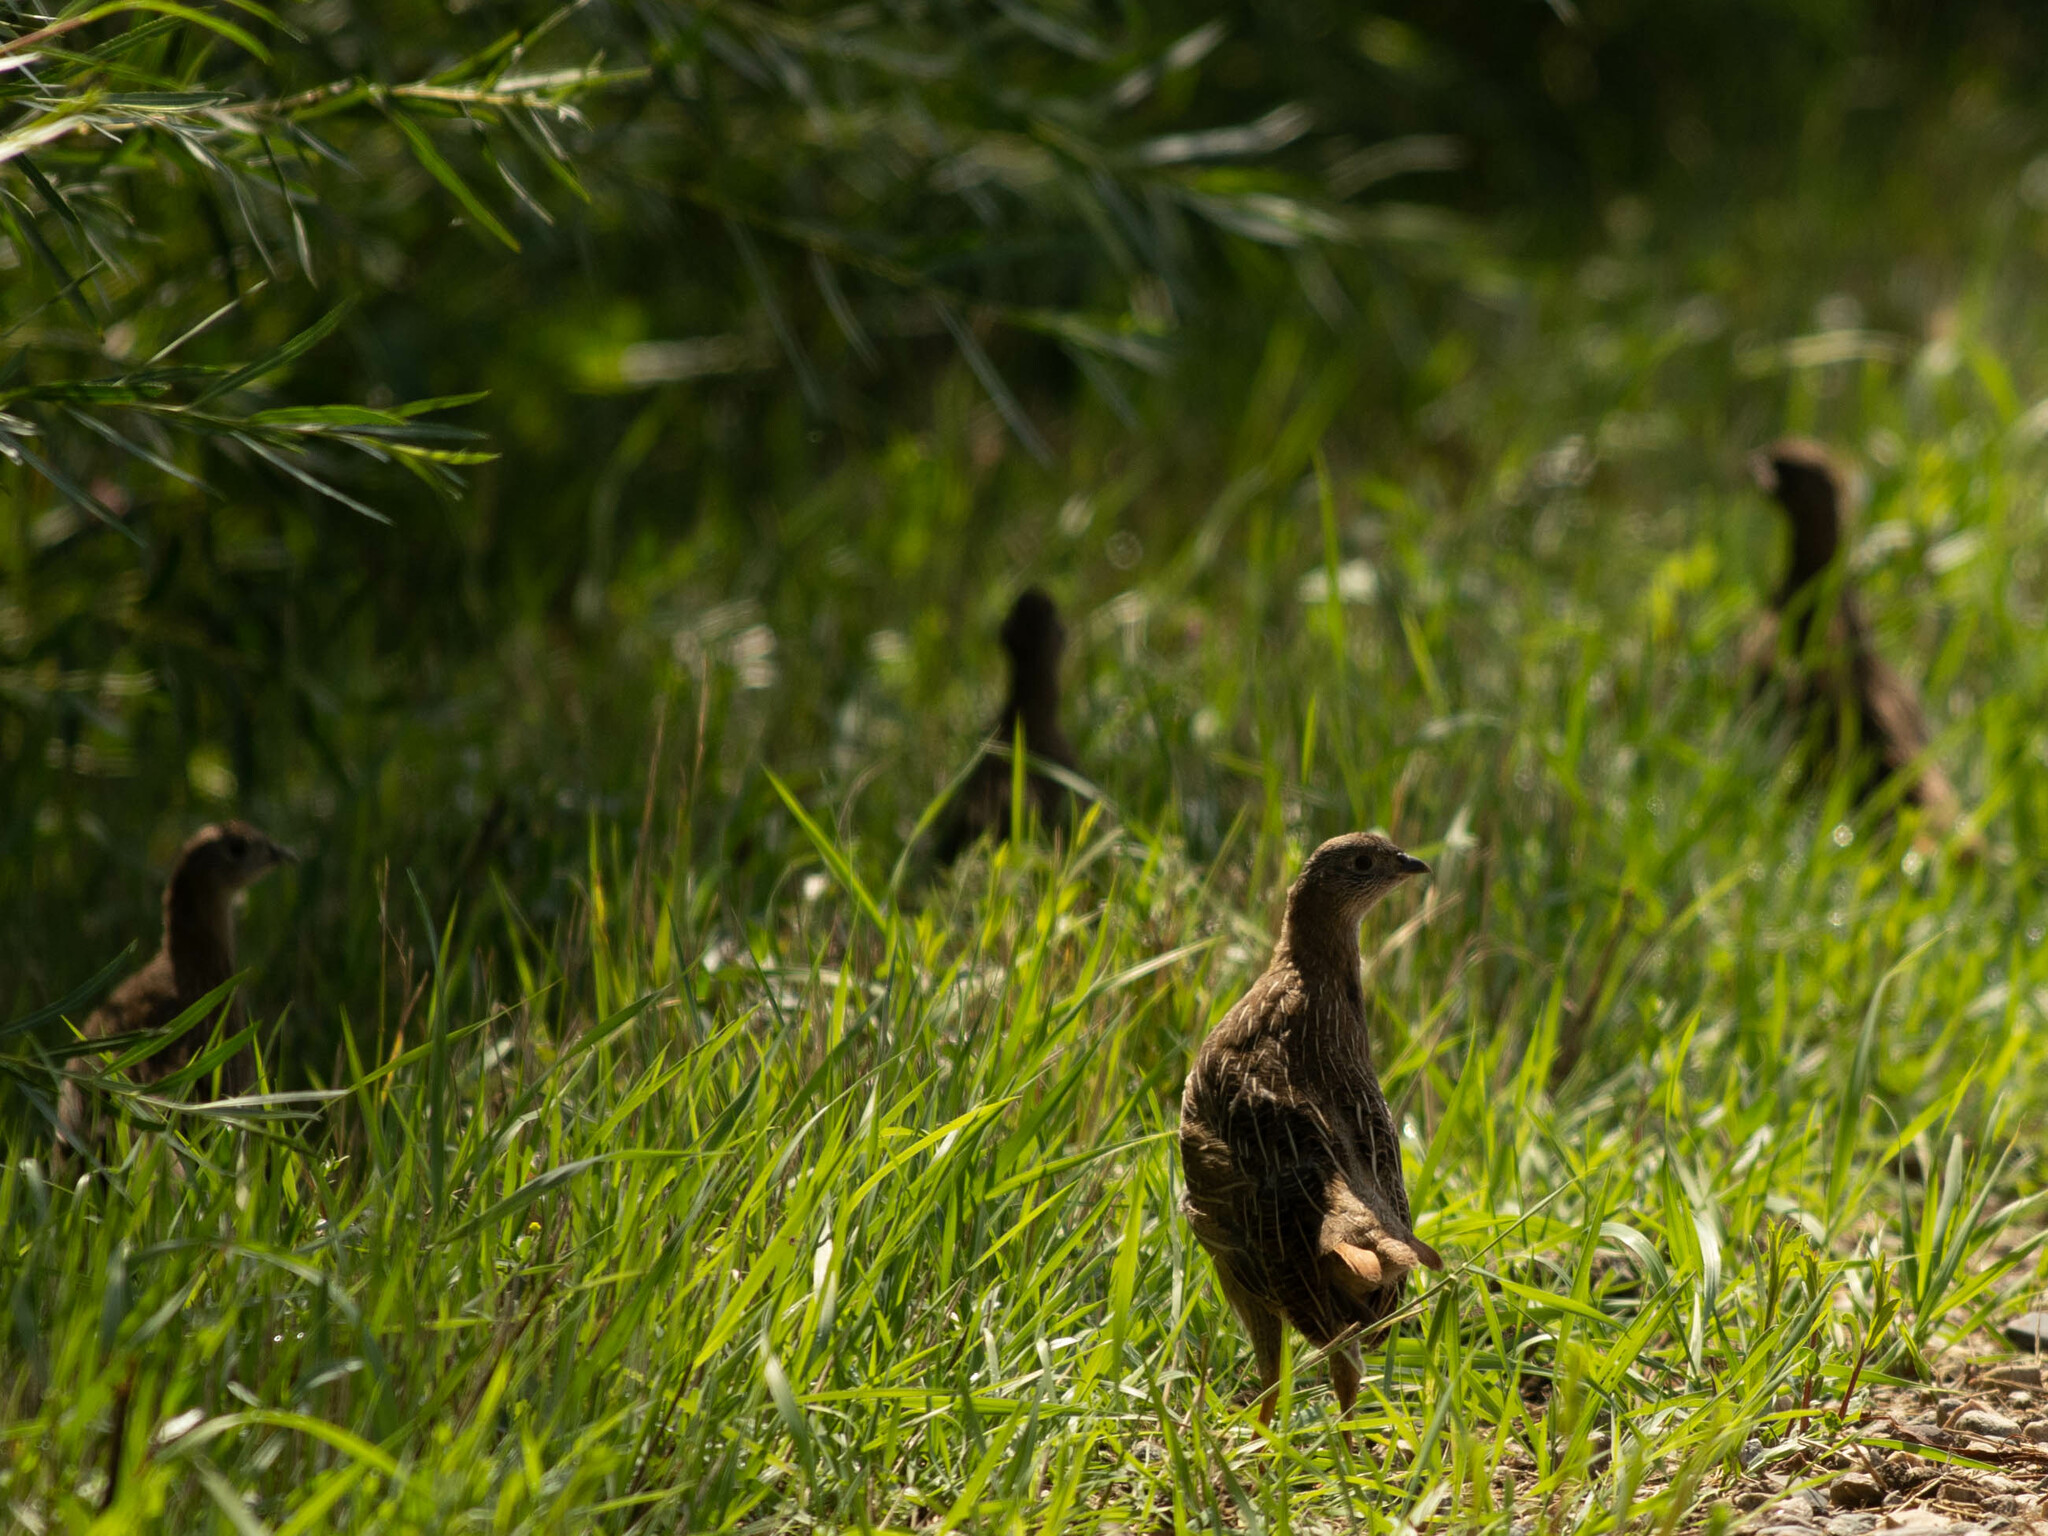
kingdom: Animalia
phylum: Chordata
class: Aves
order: Galliformes
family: Phasianidae
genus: Perdix
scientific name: Perdix perdix
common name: Grey partridge
